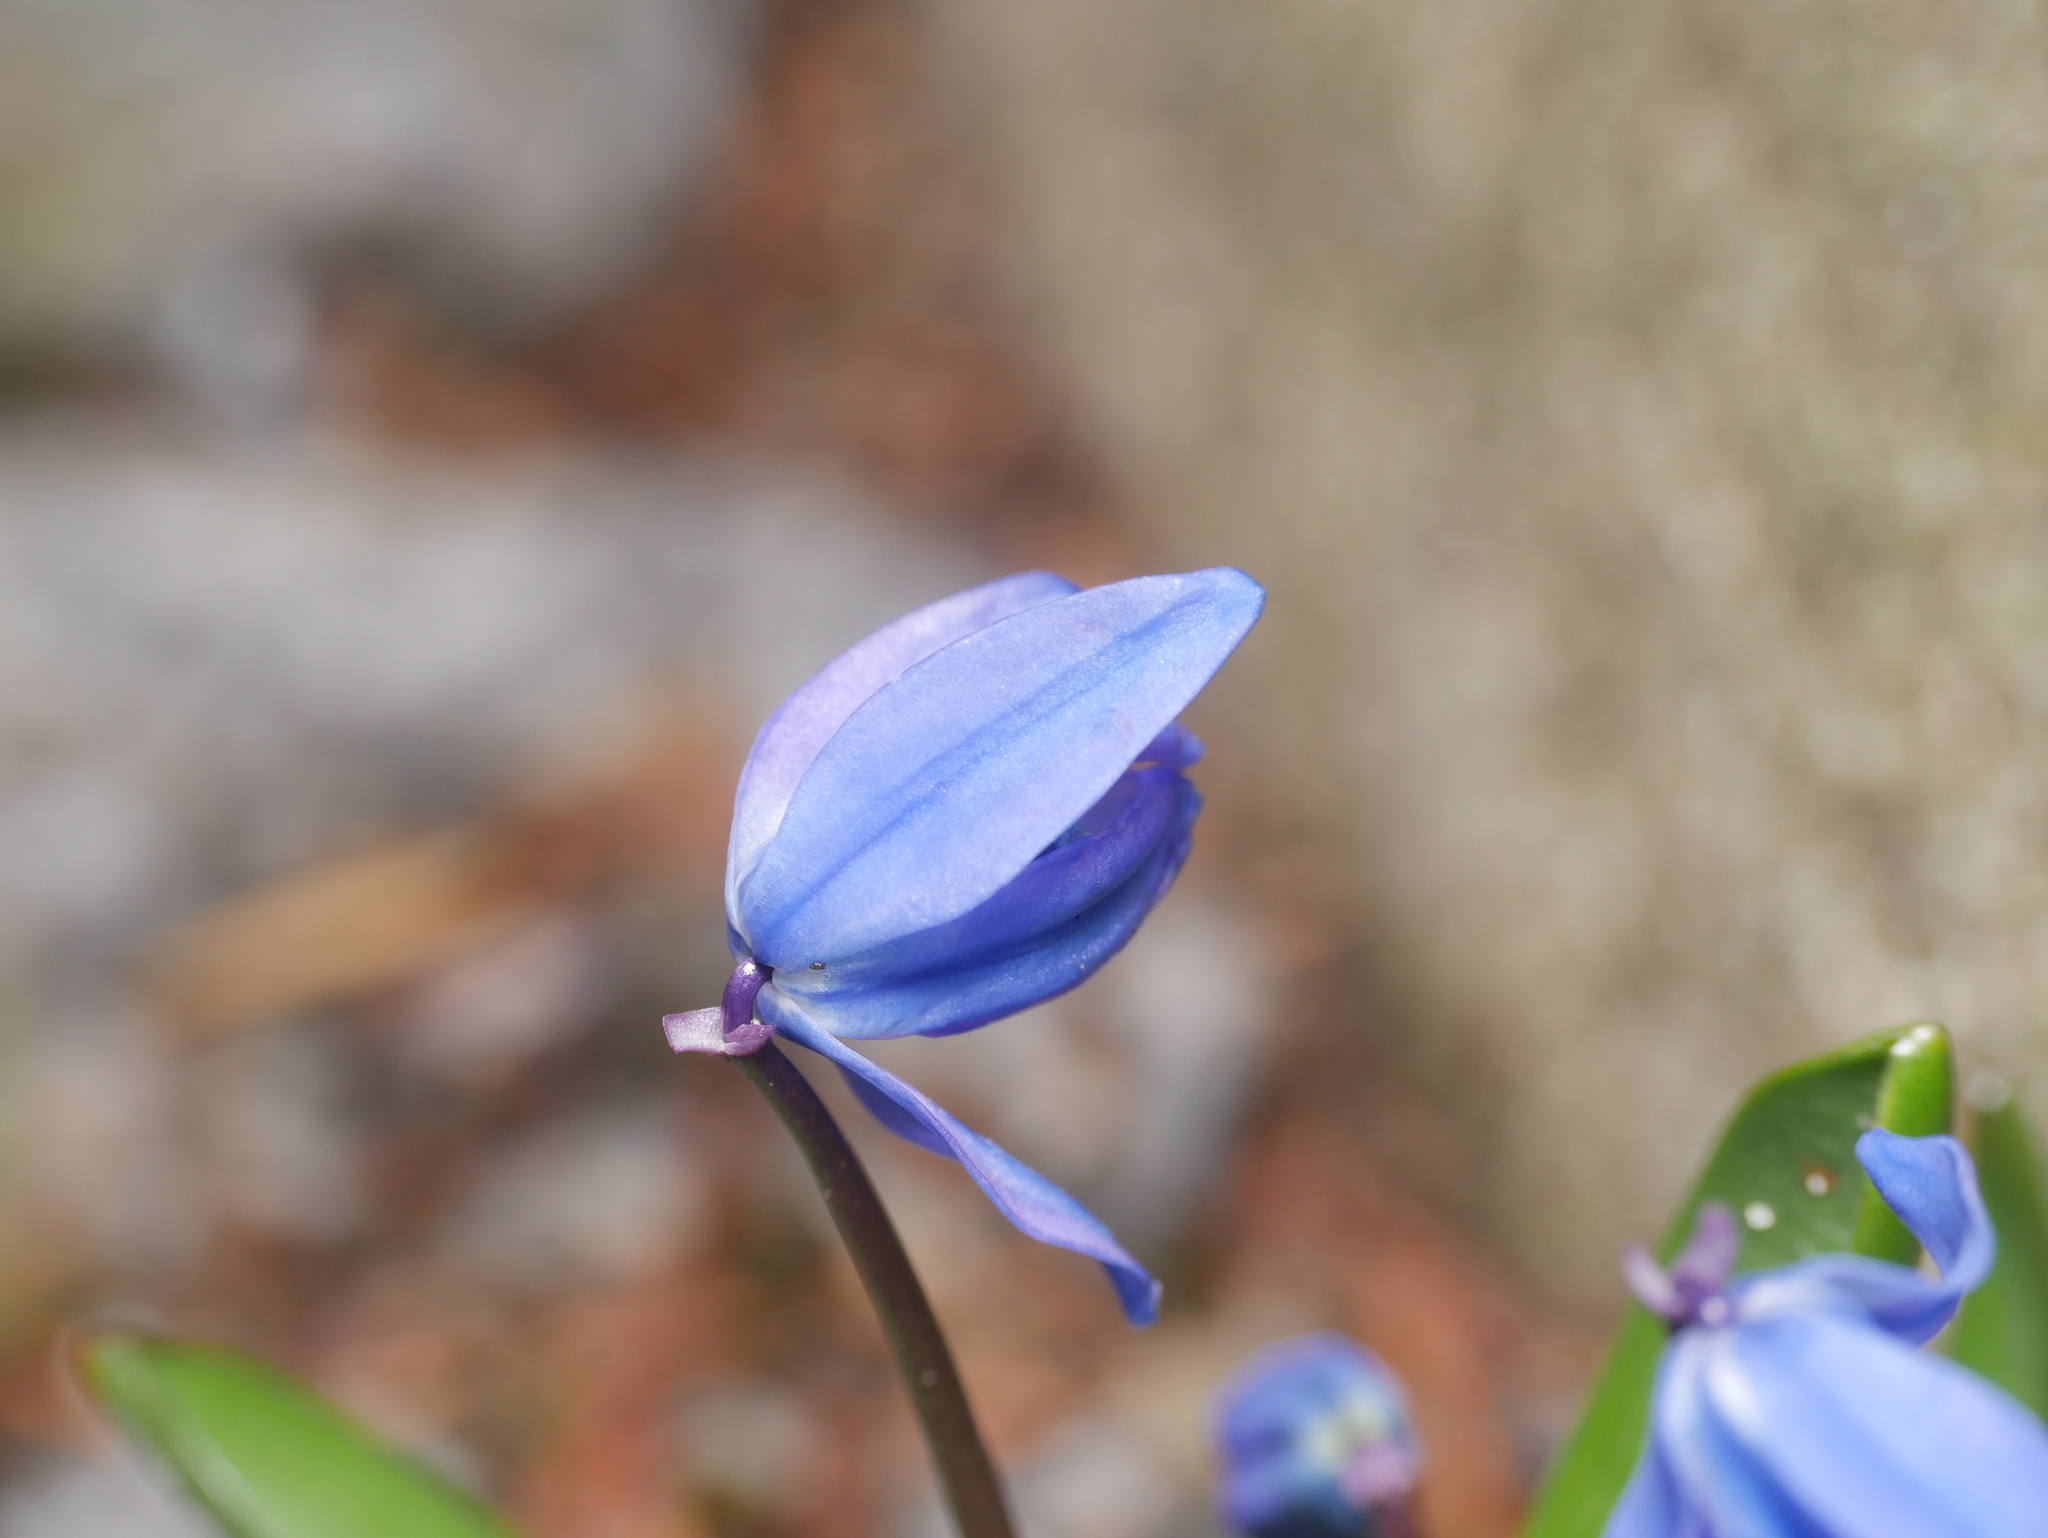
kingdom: Plantae
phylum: Tracheophyta
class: Liliopsida
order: Asparagales
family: Asparagaceae
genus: Scilla
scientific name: Scilla siberica
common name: Siberian squill
